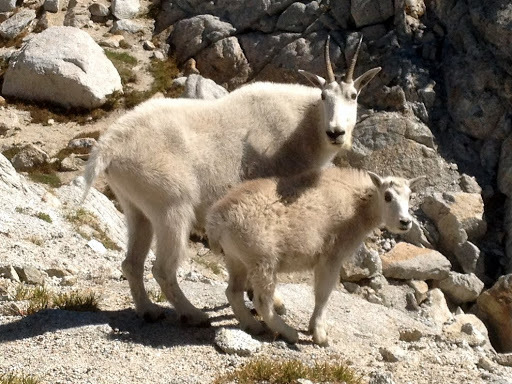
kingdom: Animalia
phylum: Chordata
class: Mammalia
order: Artiodactyla
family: Bovidae
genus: Oreamnos
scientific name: Oreamnos americanus
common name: Mountain goat
